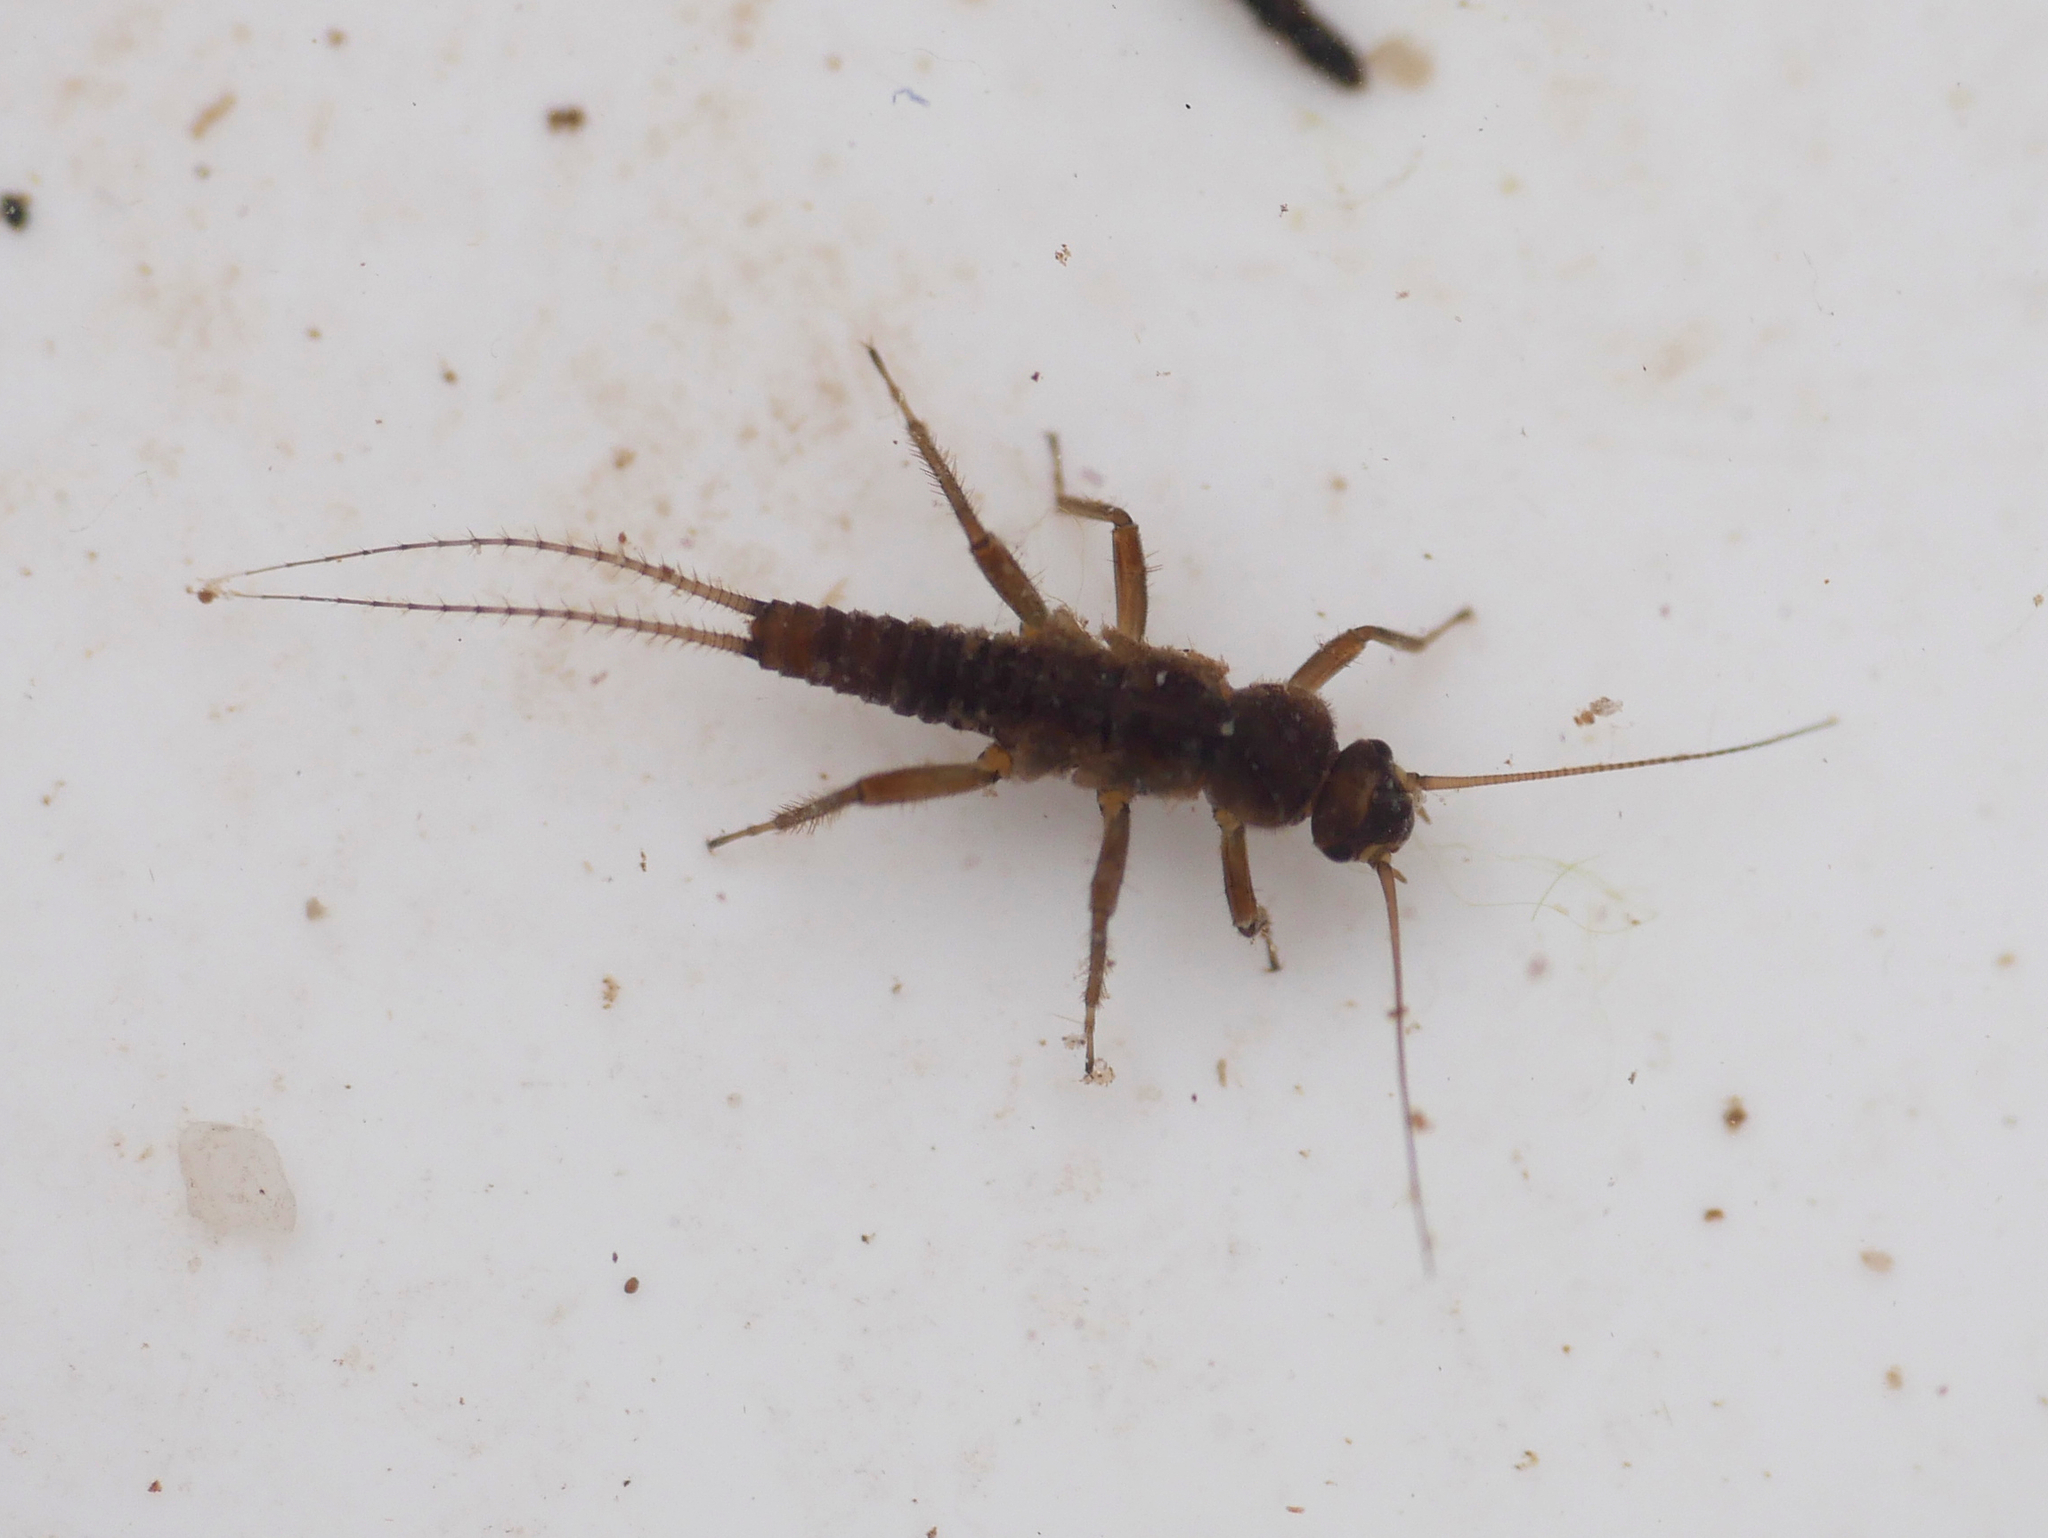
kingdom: Animalia
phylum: Arthropoda
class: Insecta
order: Plecoptera
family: Nemouridae
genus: Nemurella
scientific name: Nemurella pictetii
